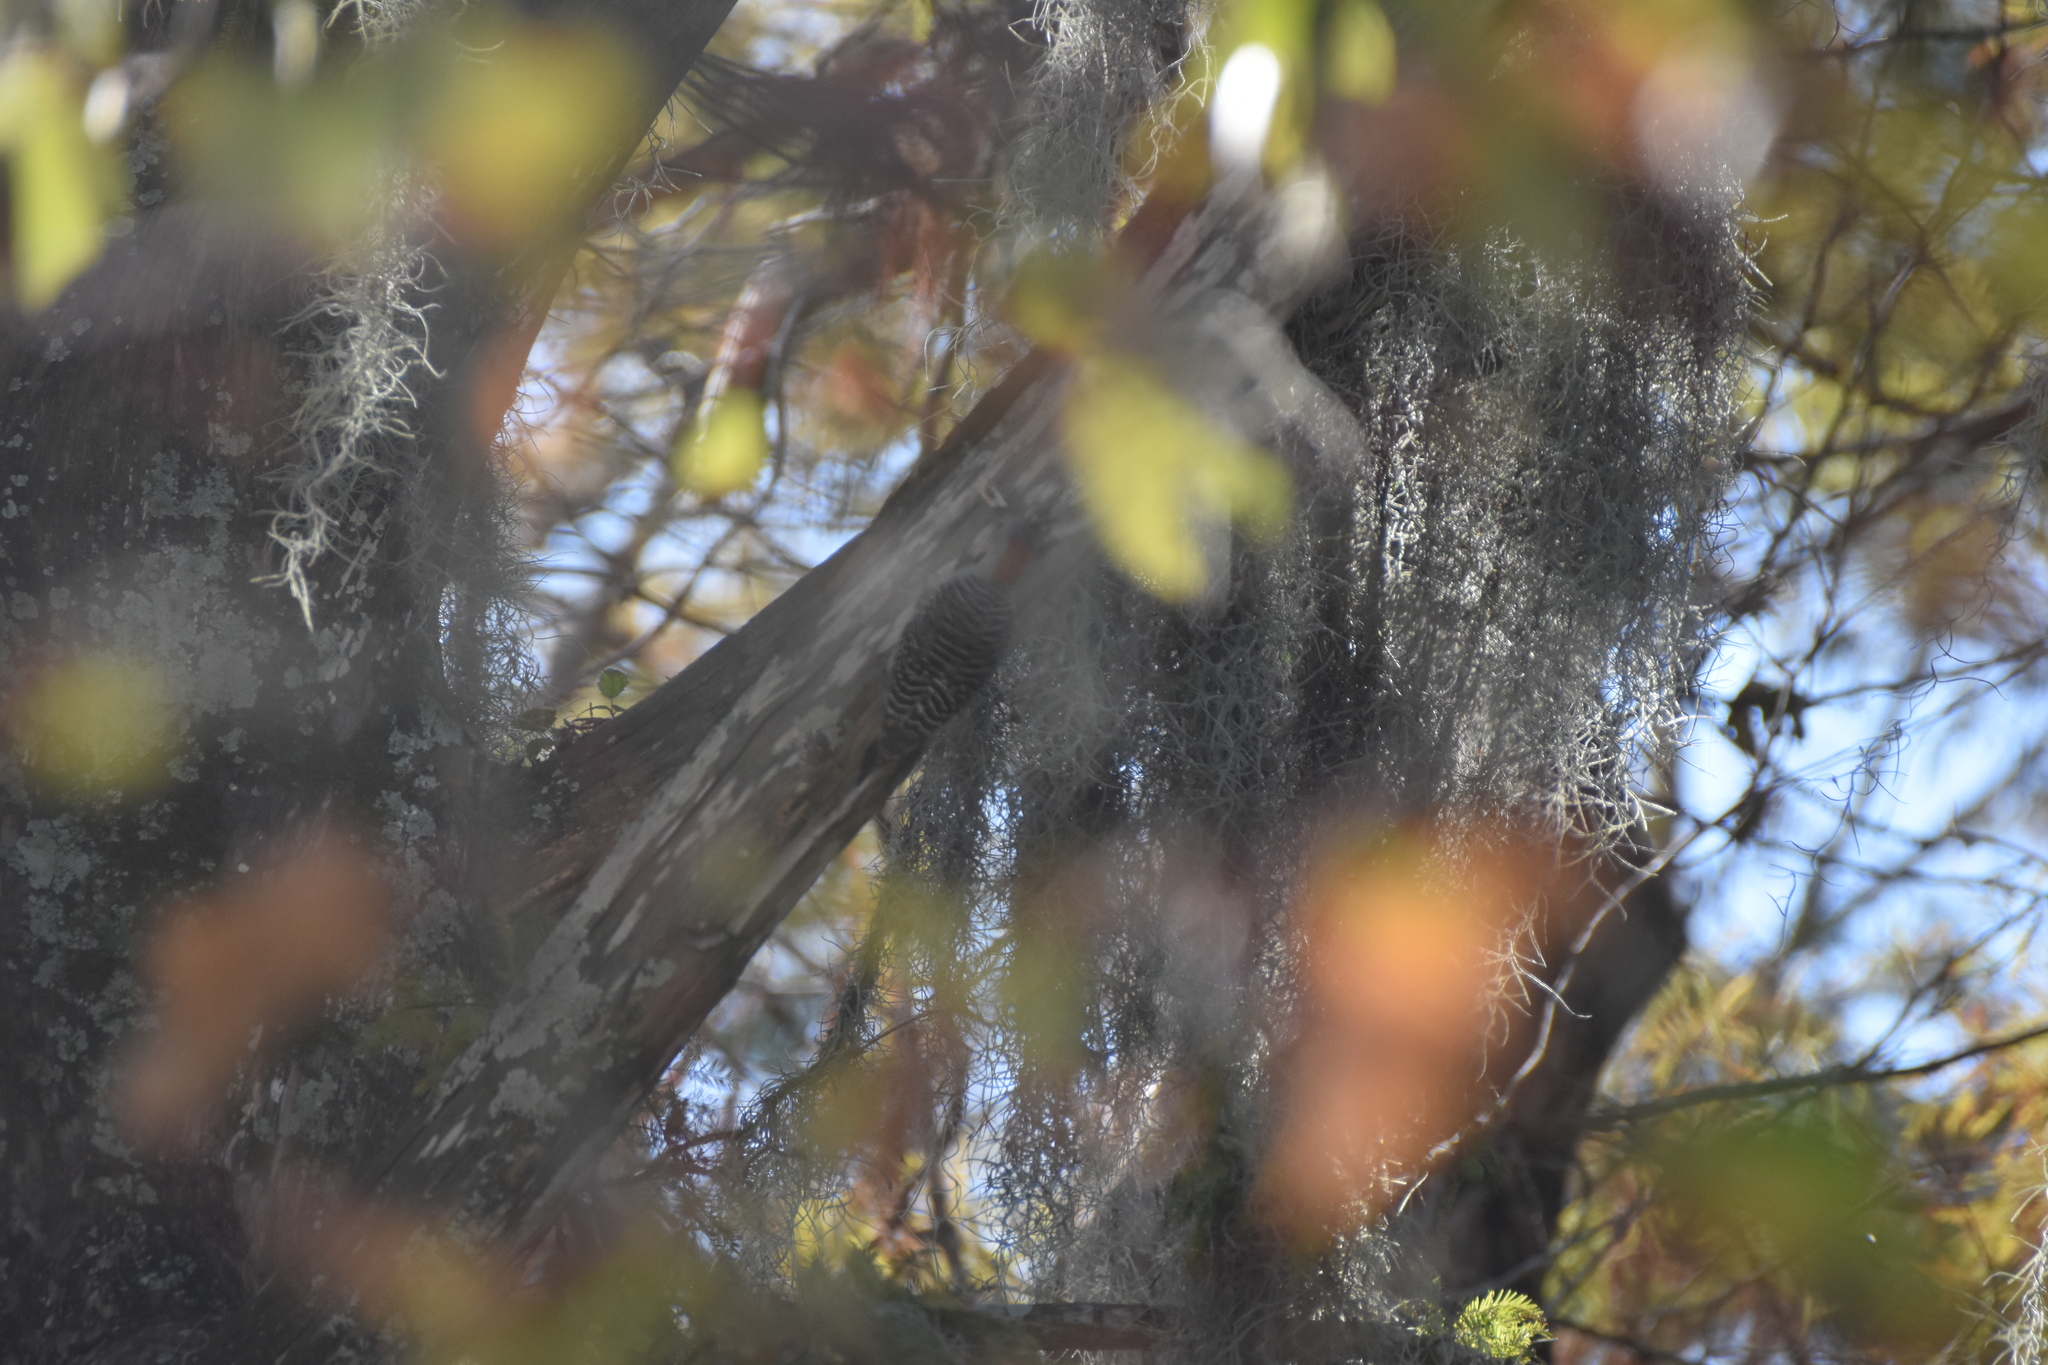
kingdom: Animalia
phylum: Chordata
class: Aves
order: Piciformes
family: Picidae
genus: Melanerpes
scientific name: Melanerpes carolinus
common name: Red-bellied woodpecker
